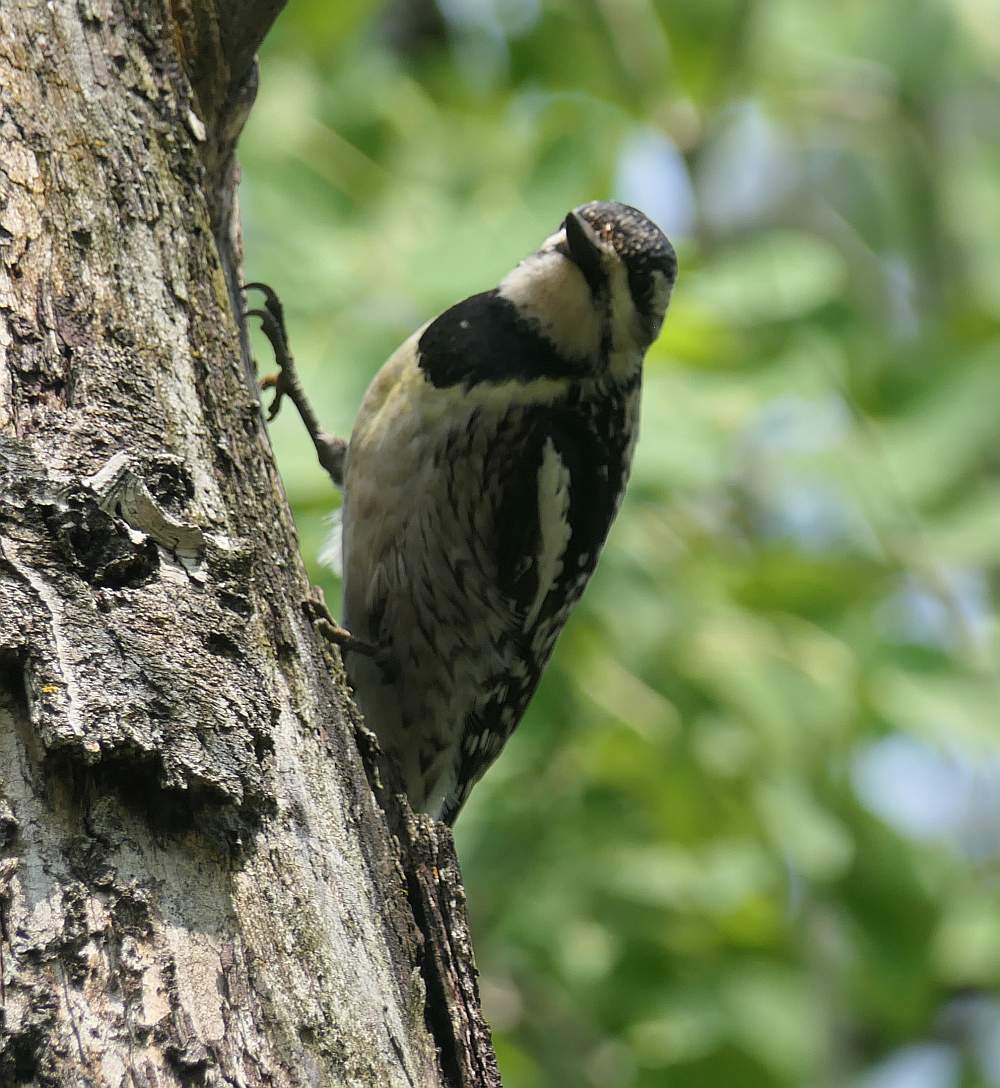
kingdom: Animalia
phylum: Chordata
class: Aves
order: Piciformes
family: Picidae
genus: Sphyrapicus
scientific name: Sphyrapicus varius
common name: Yellow-bellied sapsucker
